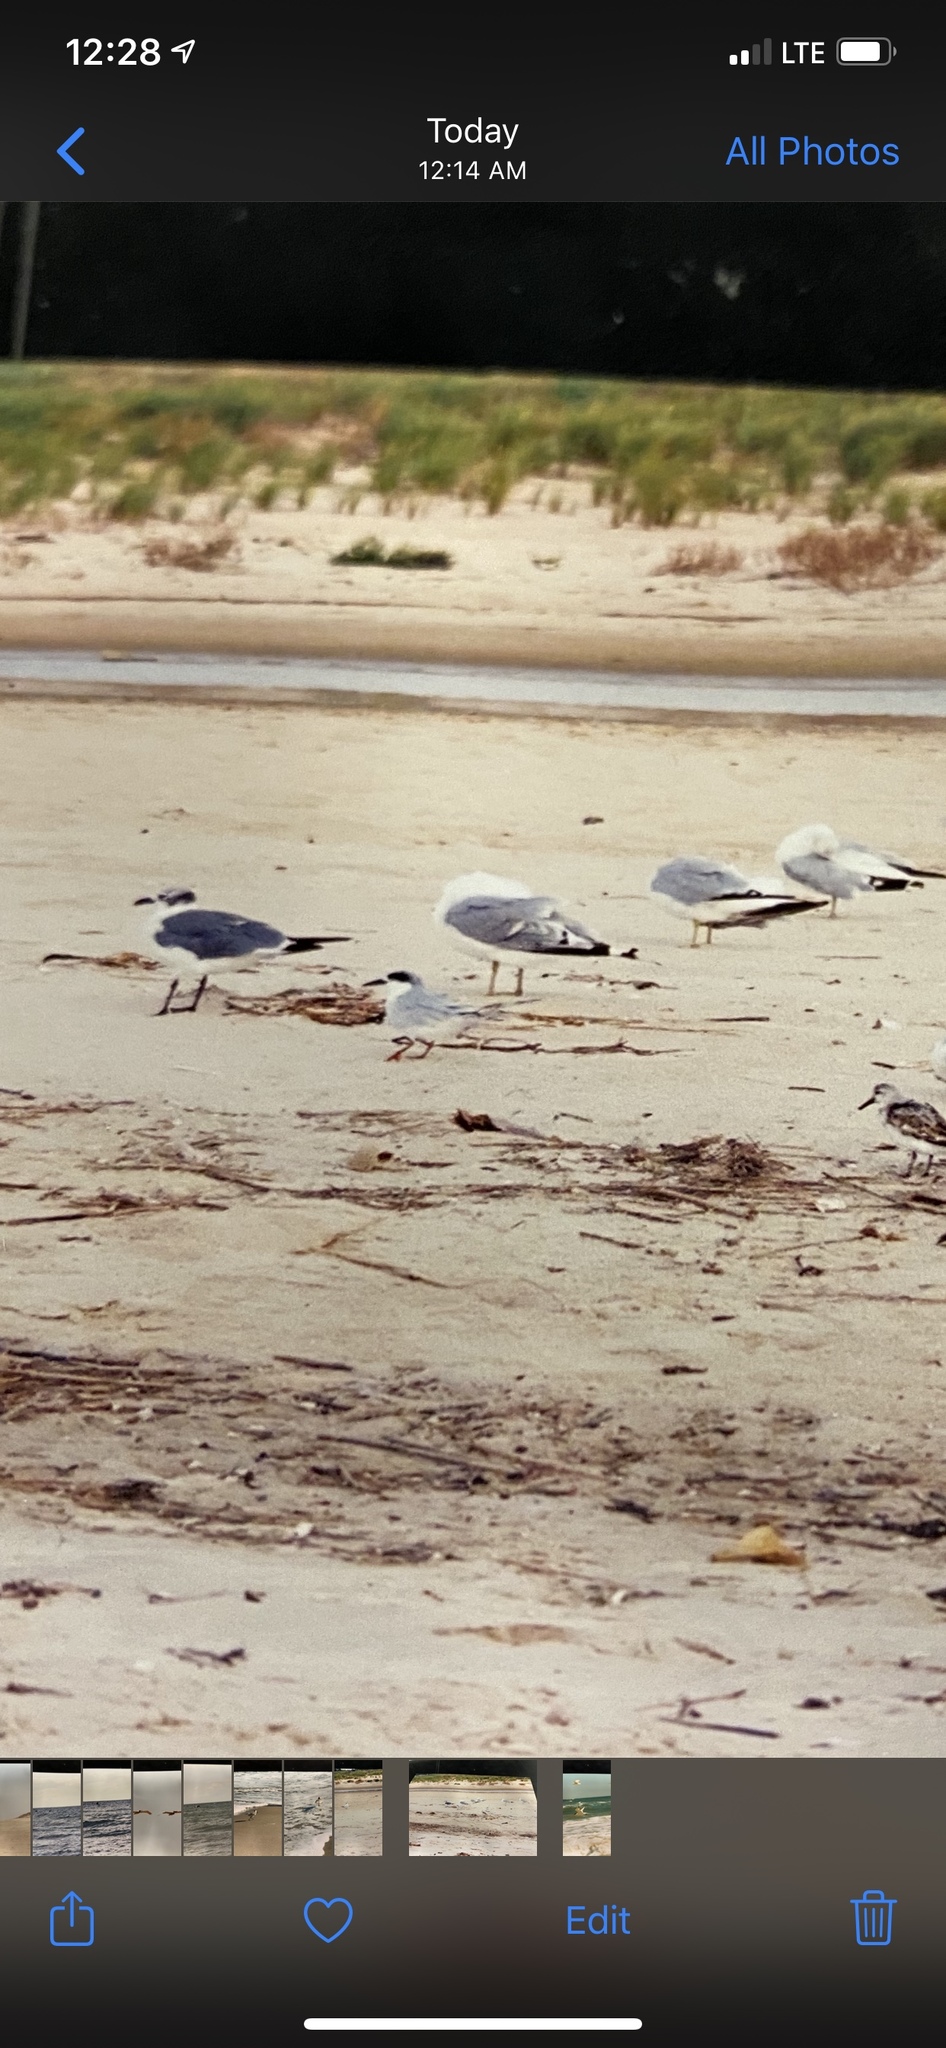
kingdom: Animalia
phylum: Chordata
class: Aves
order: Charadriiformes
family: Laridae
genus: Sterna
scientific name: Sterna forsteri
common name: Forster's tern
